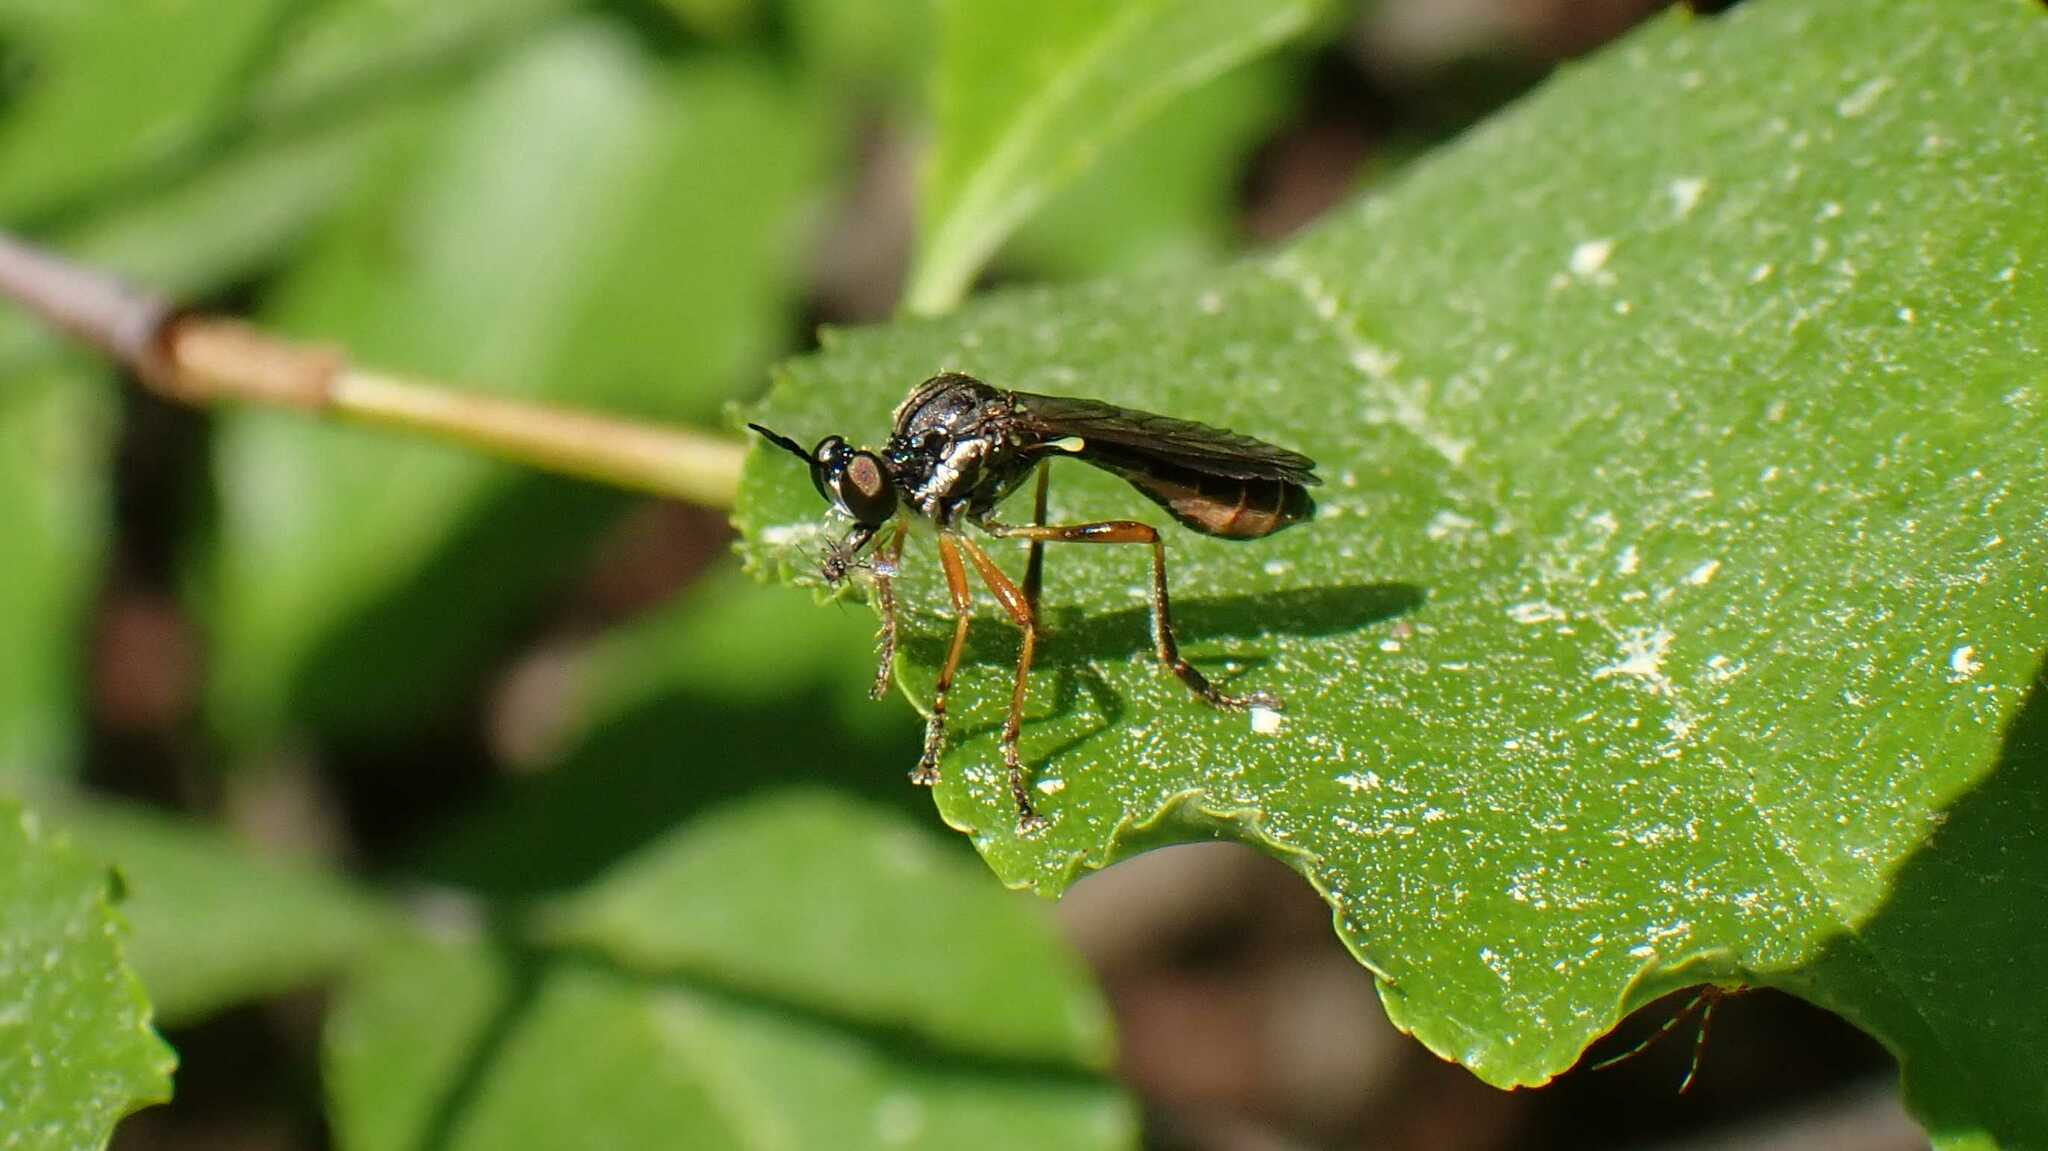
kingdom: Animalia
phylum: Arthropoda
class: Insecta
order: Diptera
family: Asilidae
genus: Dioctria
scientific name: Dioctria hyalipennis
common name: Stripe-legged robberfly
